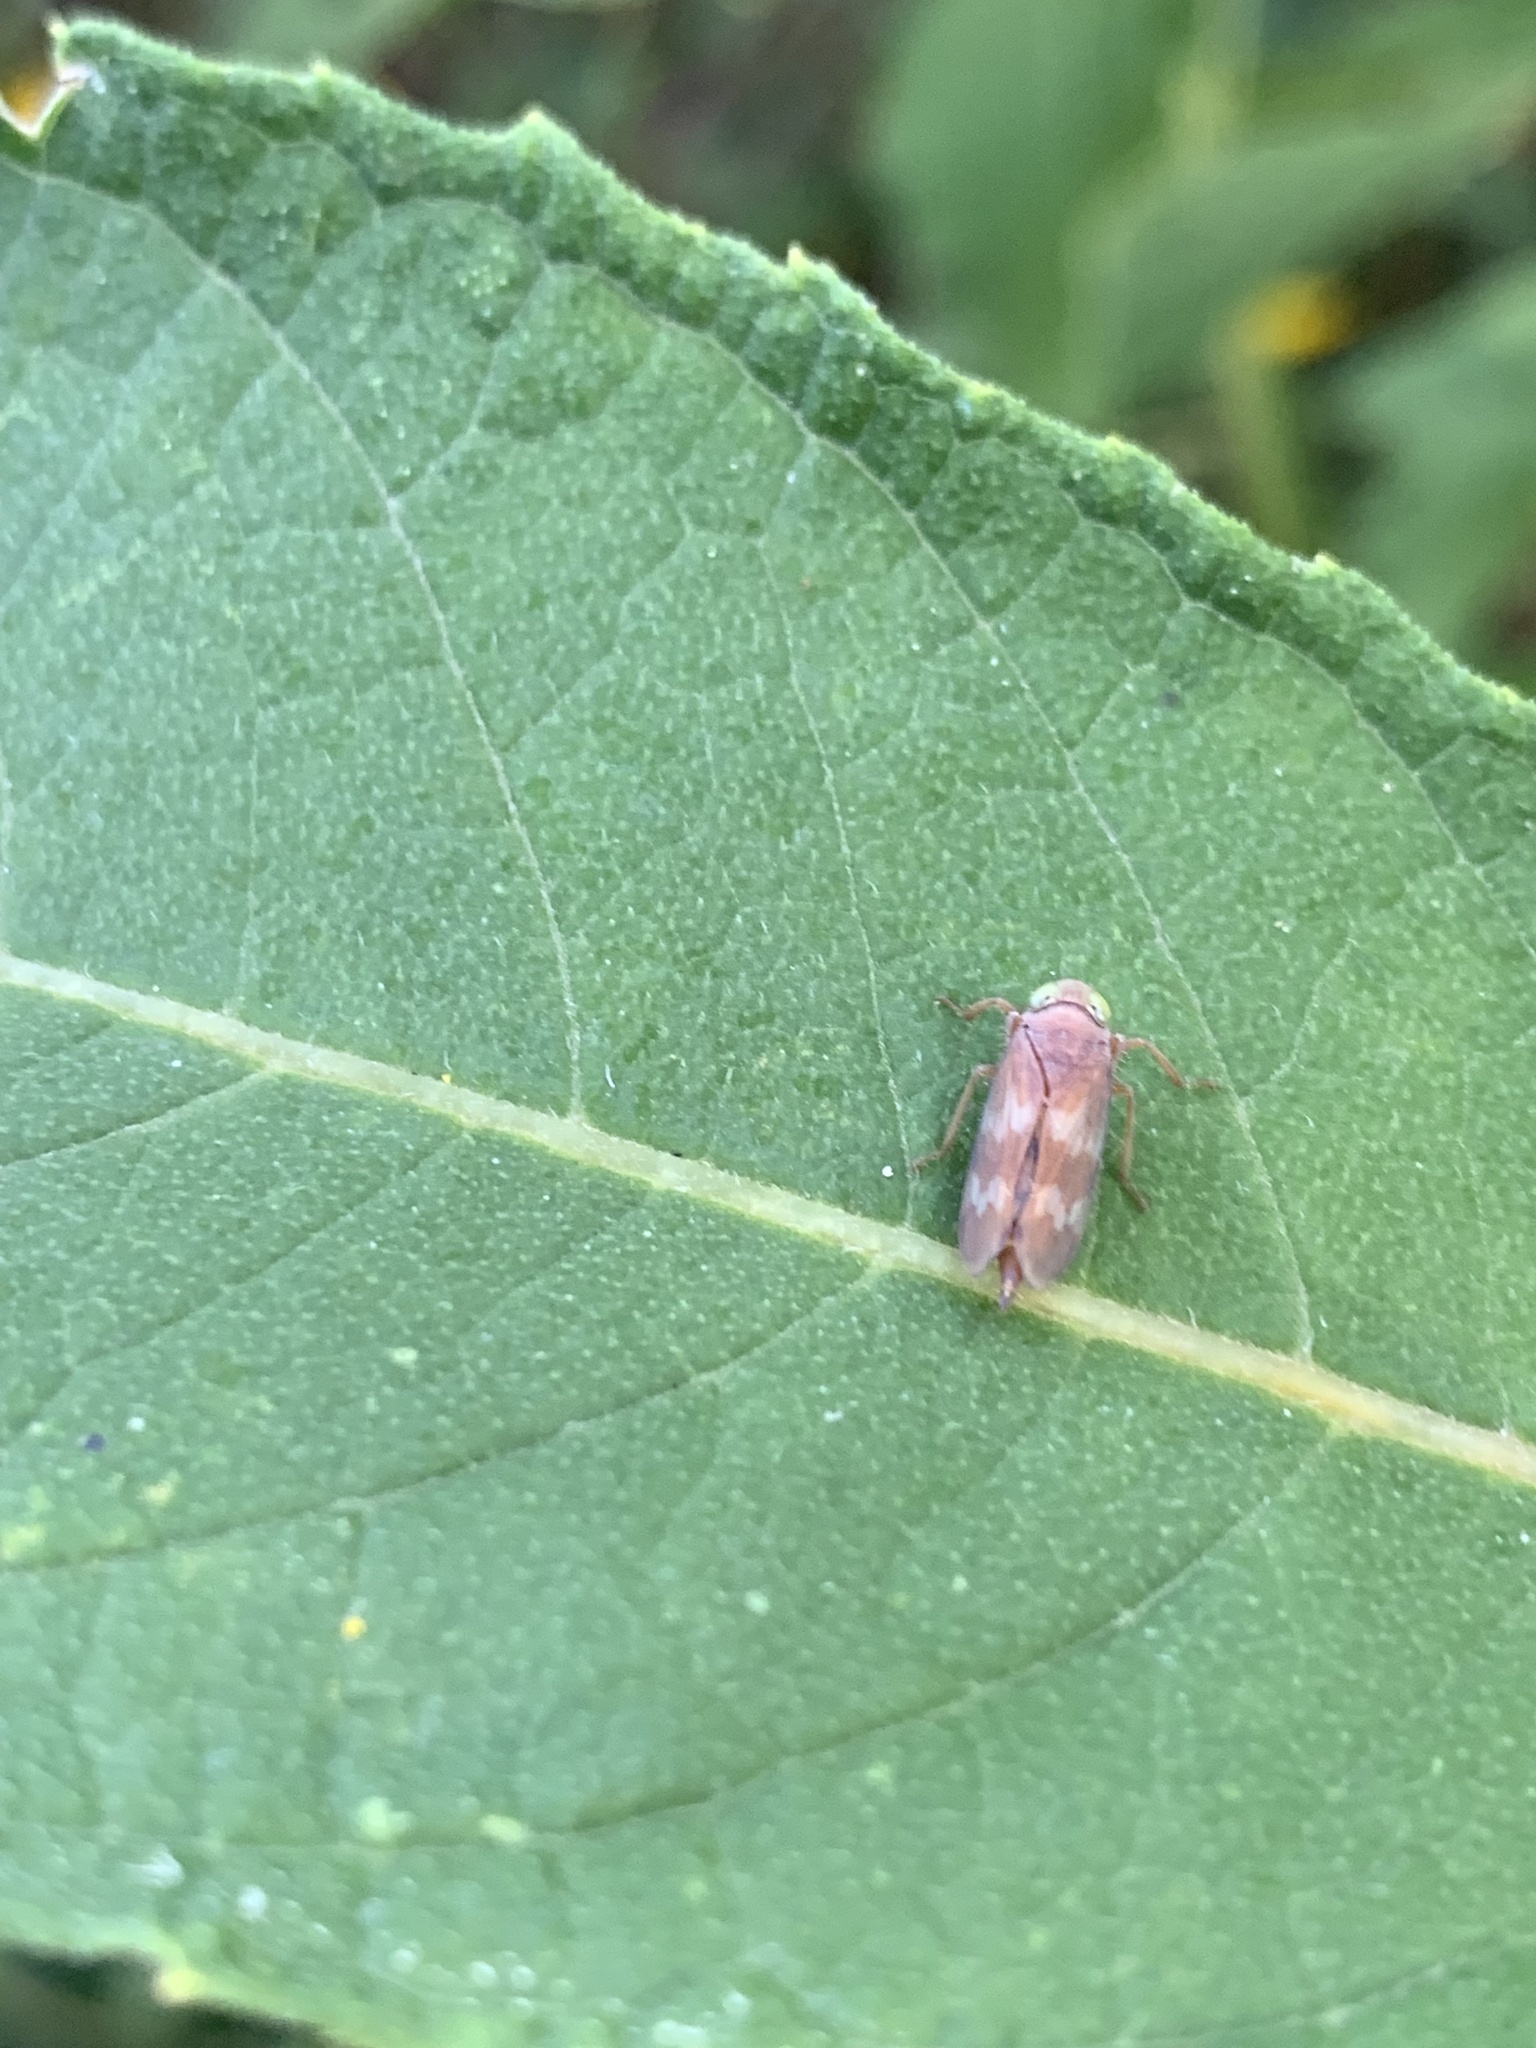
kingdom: Animalia
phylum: Arthropoda
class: Insecta
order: Hemiptera
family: Cicadellidae
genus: Jikradia
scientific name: Jikradia olitoria
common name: Coppery leafhopper
